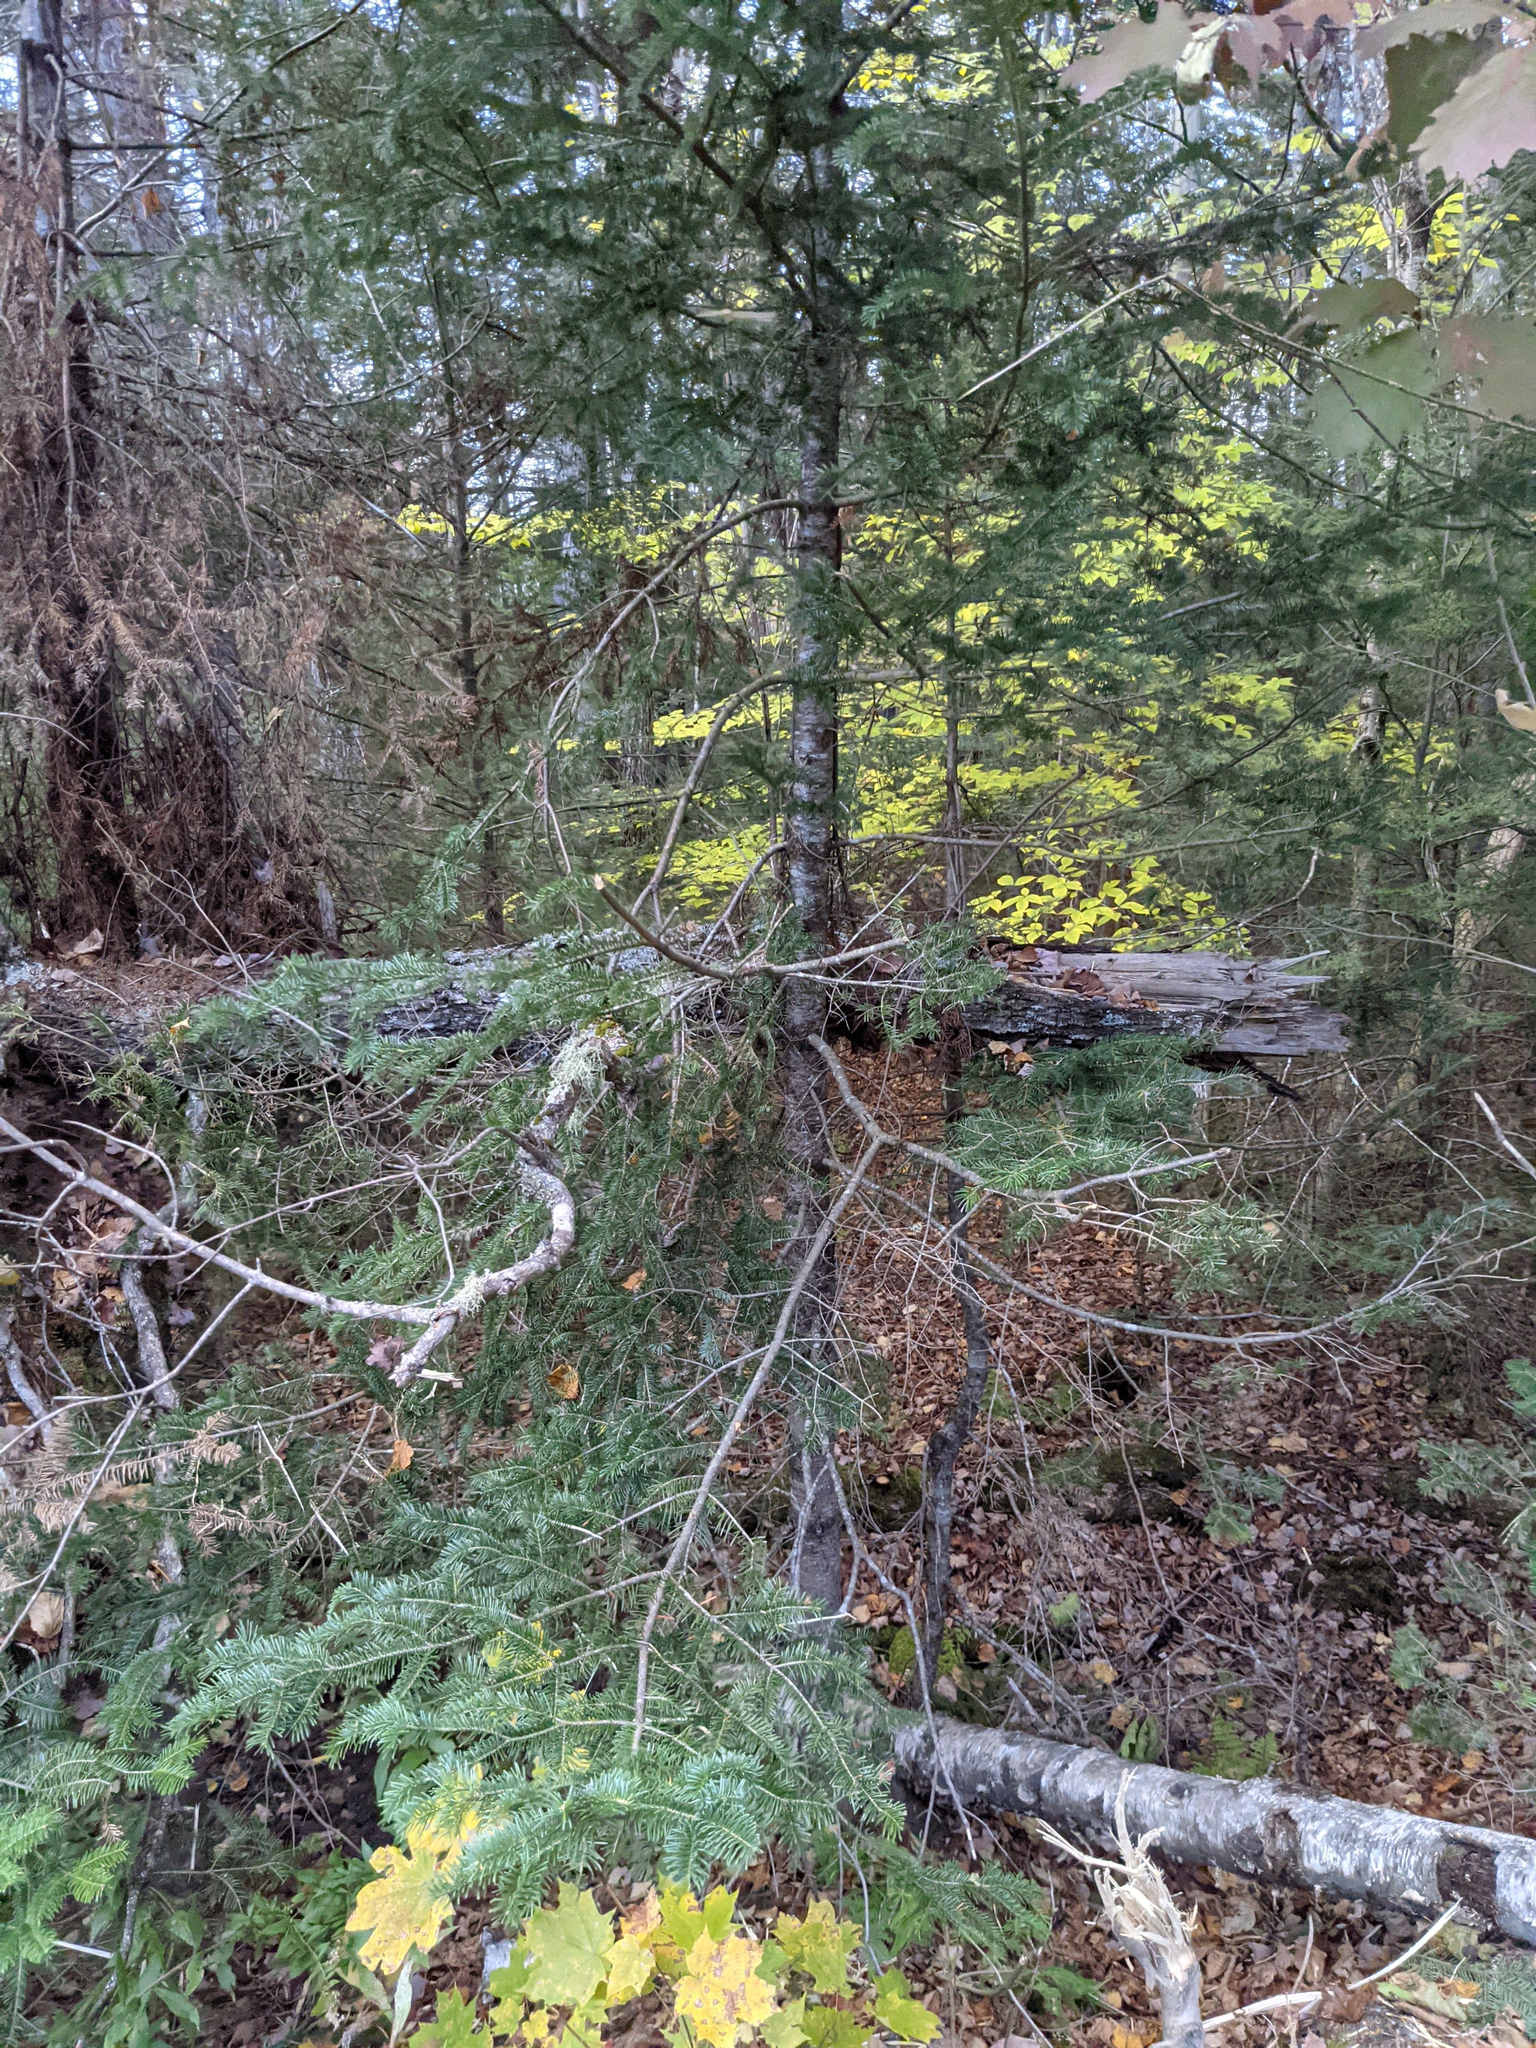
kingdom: Plantae
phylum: Tracheophyta
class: Pinopsida
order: Pinales
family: Pinaceae
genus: Abies
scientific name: Abies balsamea
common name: Balsam fir
